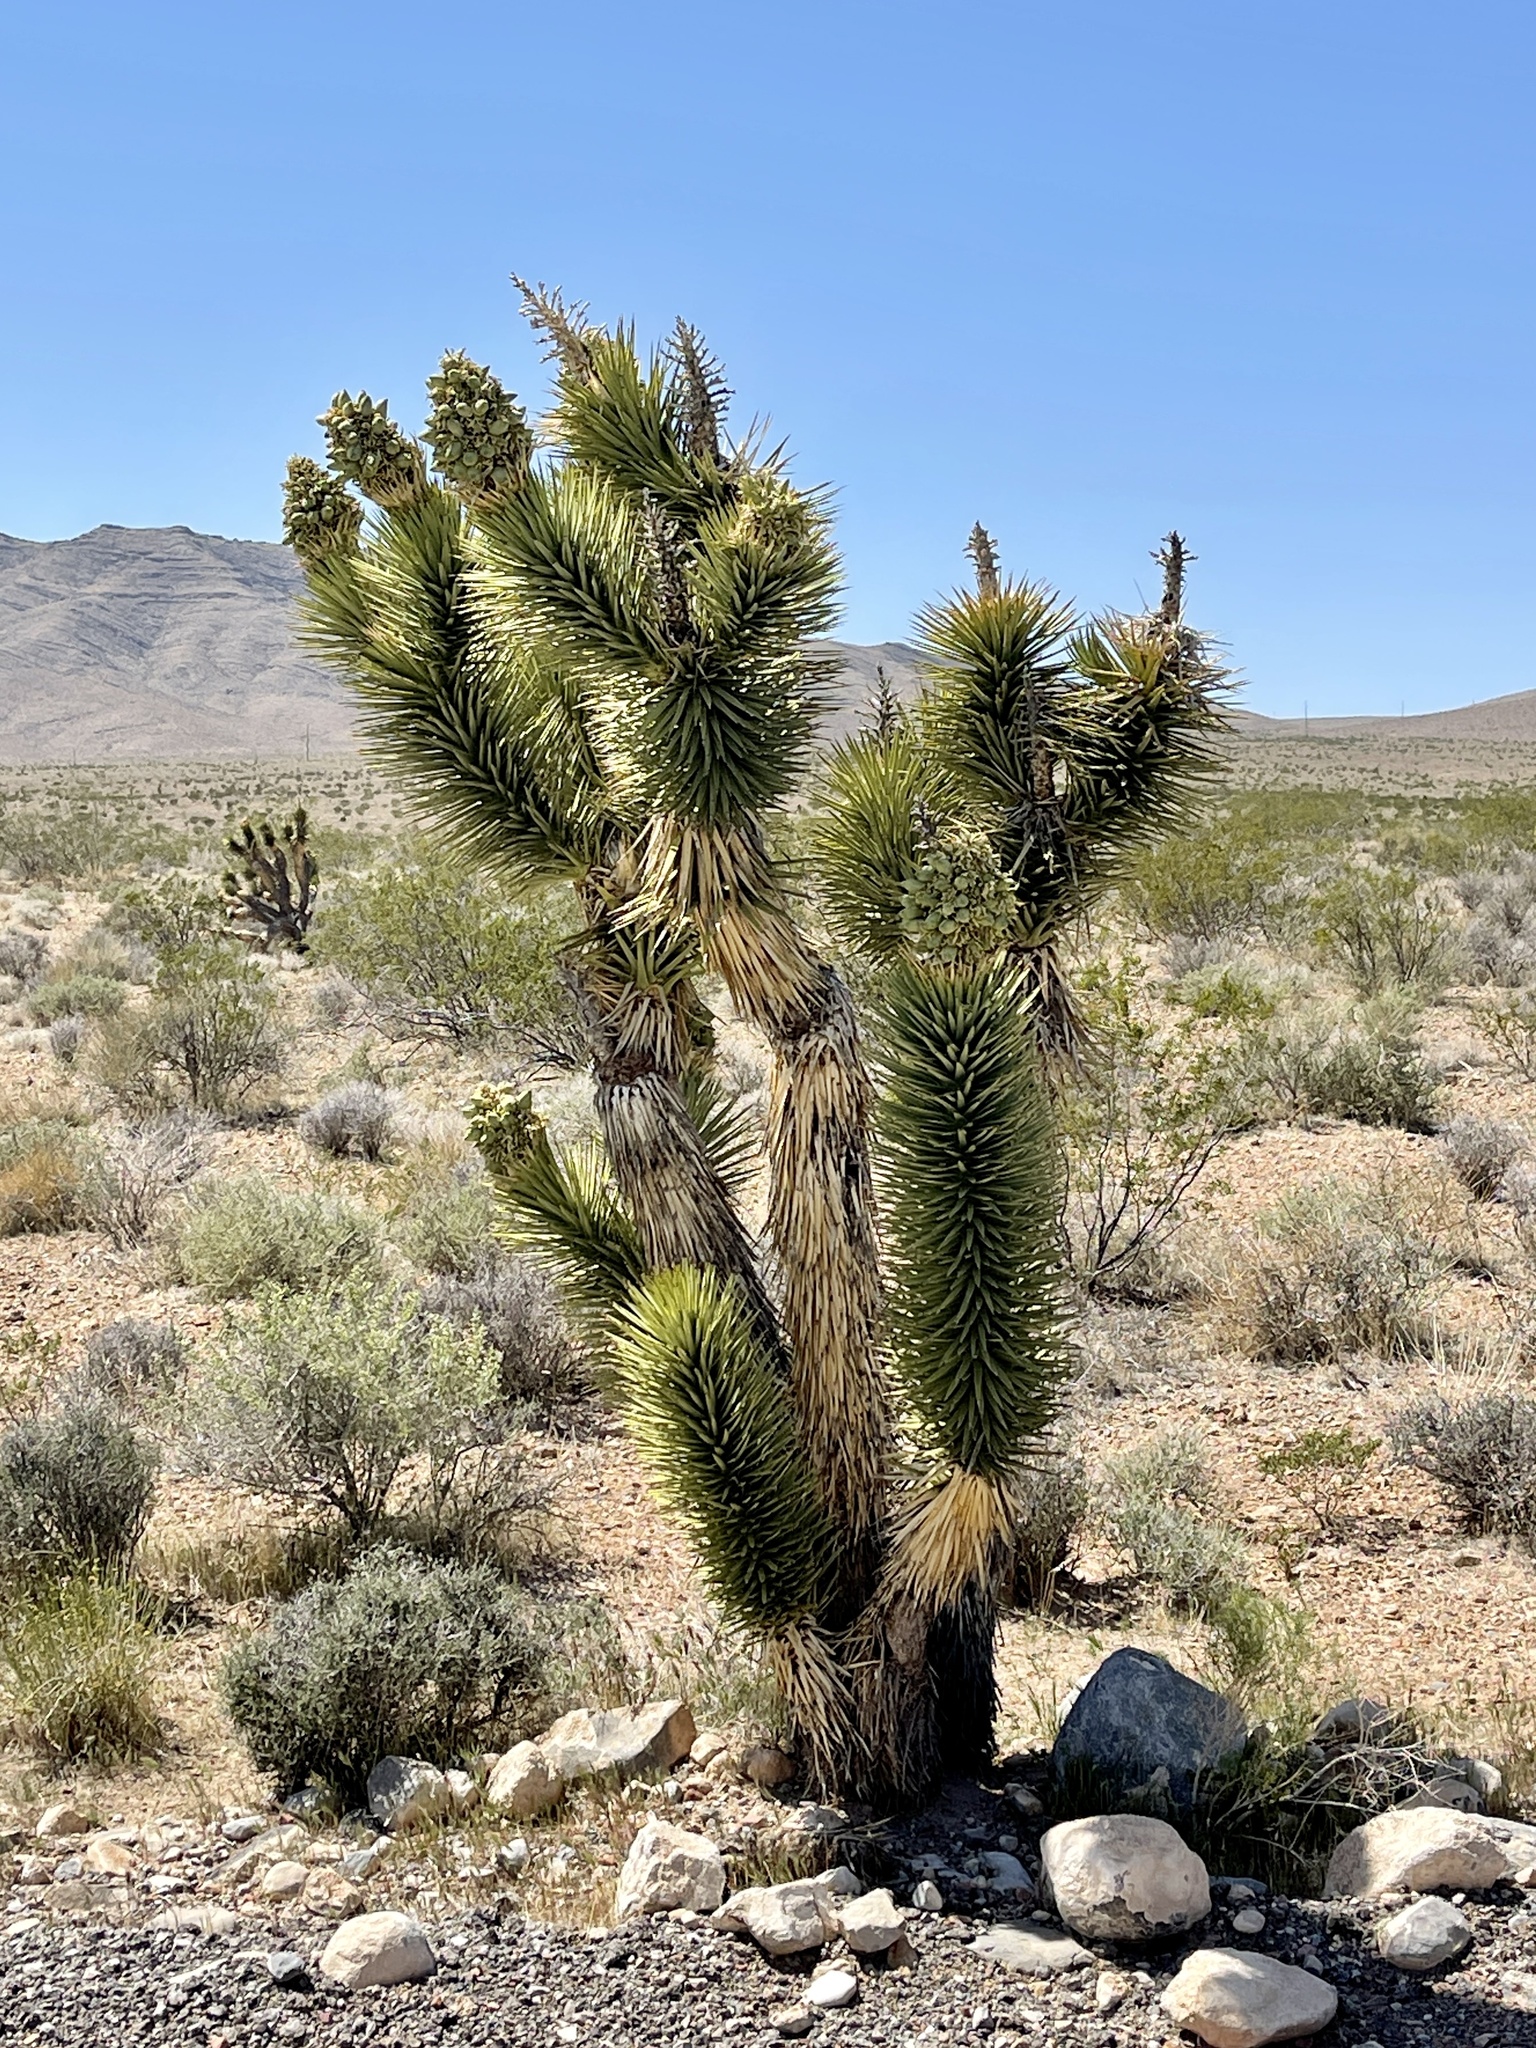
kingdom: Plantae
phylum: Tracheophyta
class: Liliopsida
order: Asparagales
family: Asparagaceae
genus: Yucca
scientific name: Yucca brevifolia
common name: Joshua tree
